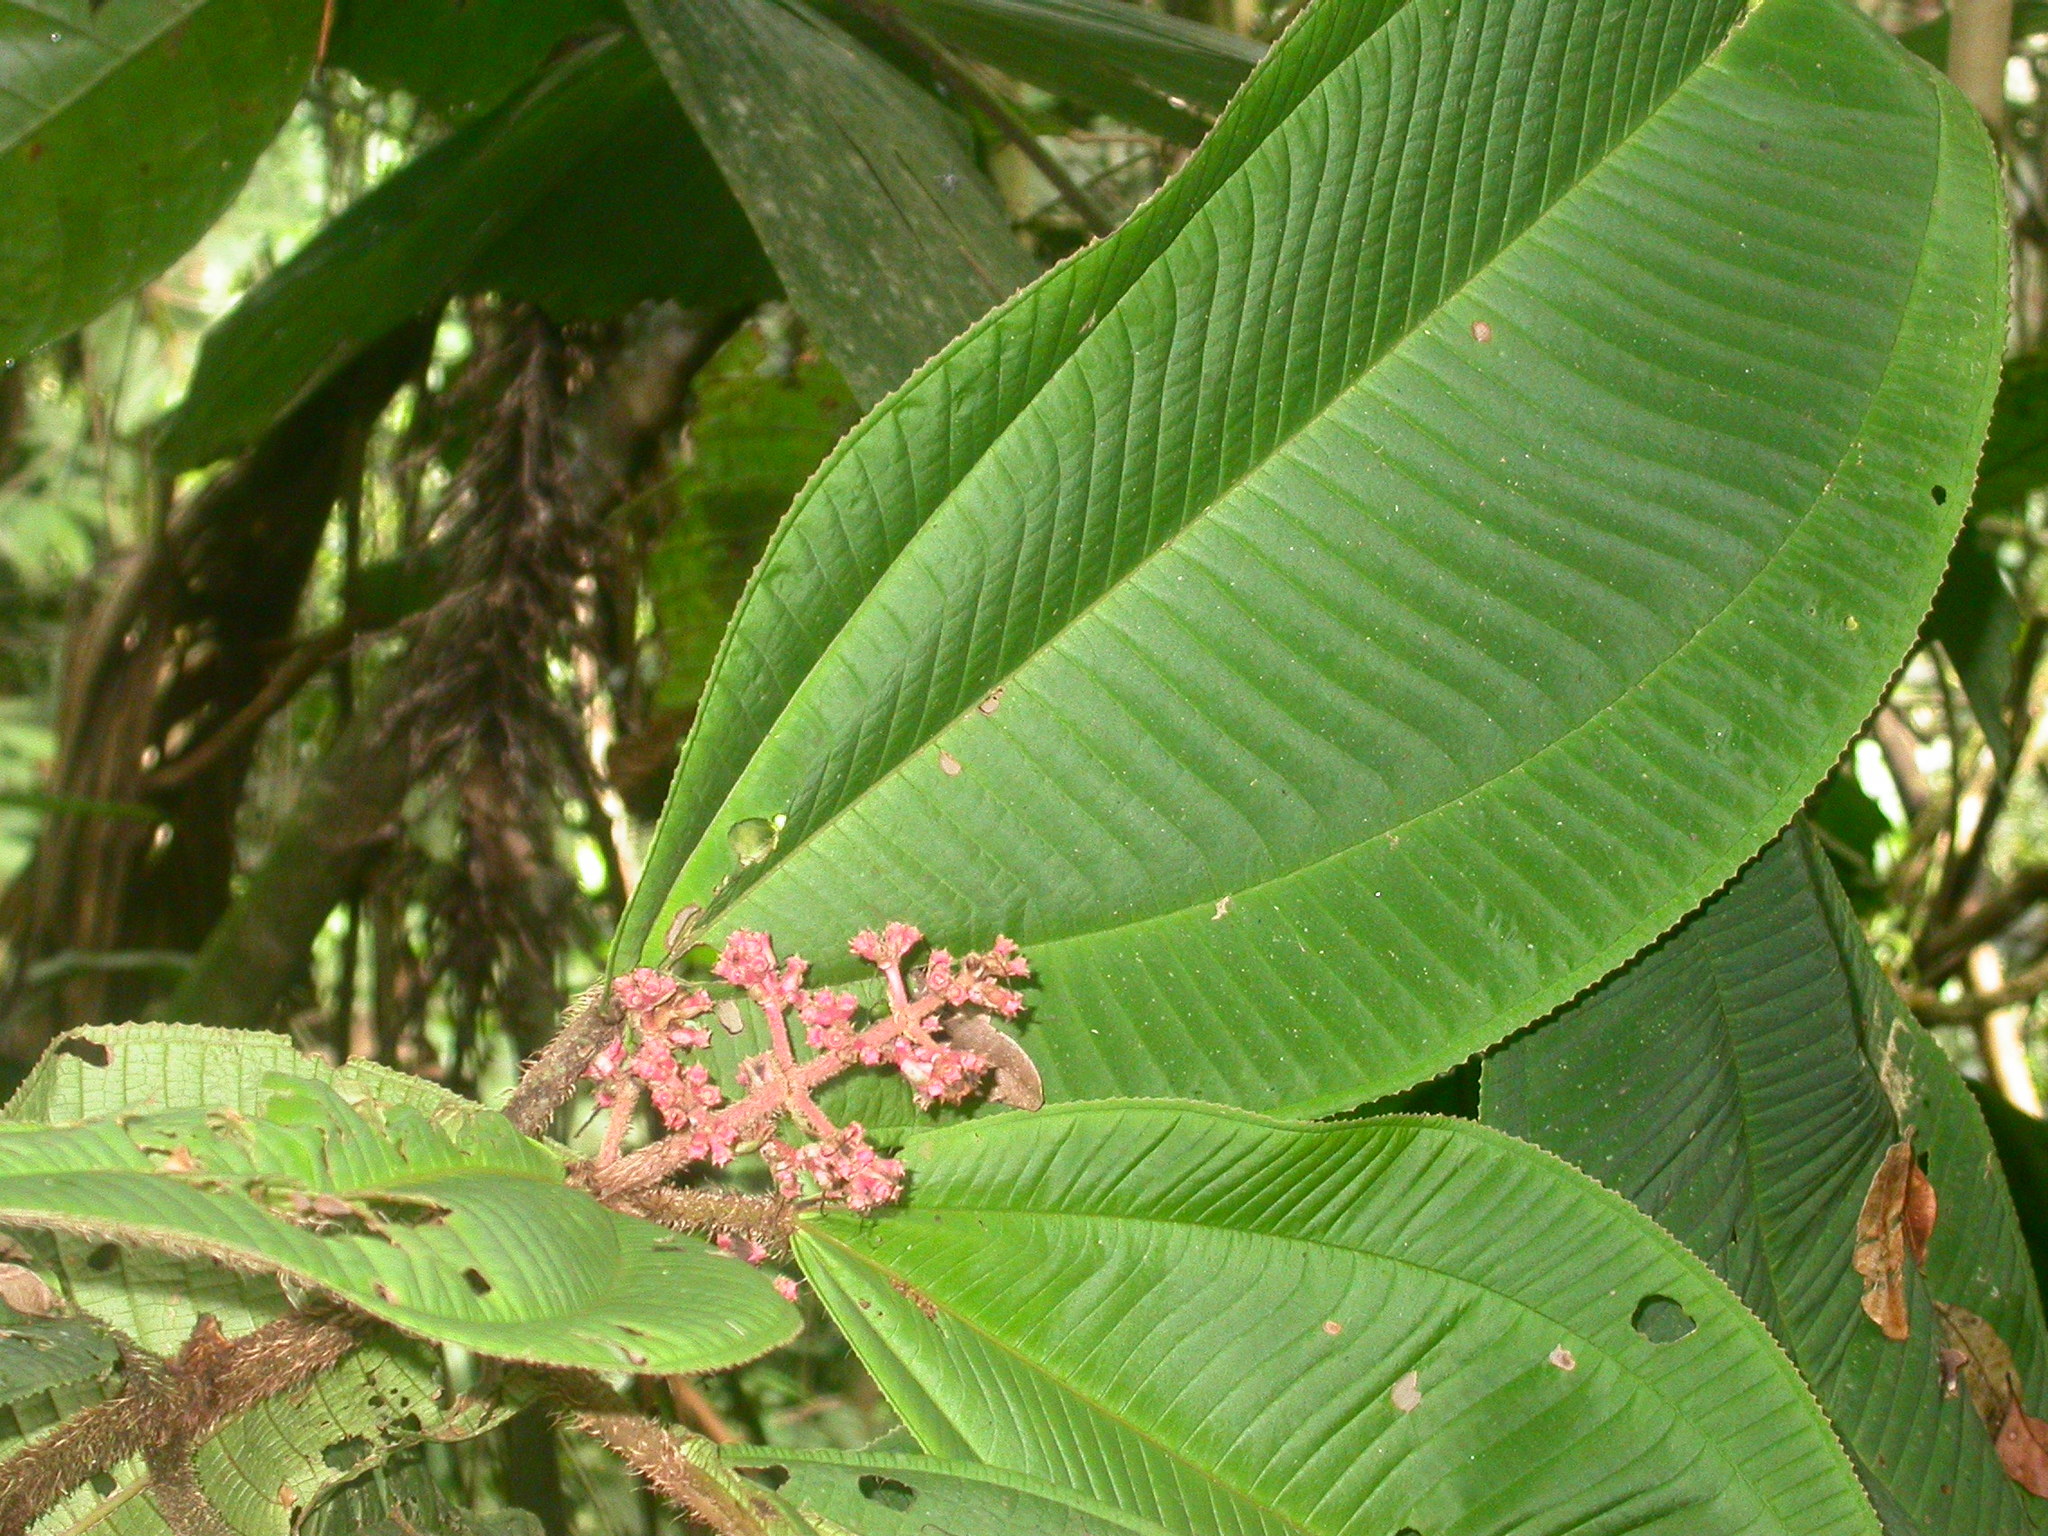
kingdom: Plantae
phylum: Tracheophyta
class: Magnoliopsida
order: Myrtales
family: Melastomataceae
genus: Miconia
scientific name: Miconia paleacea
